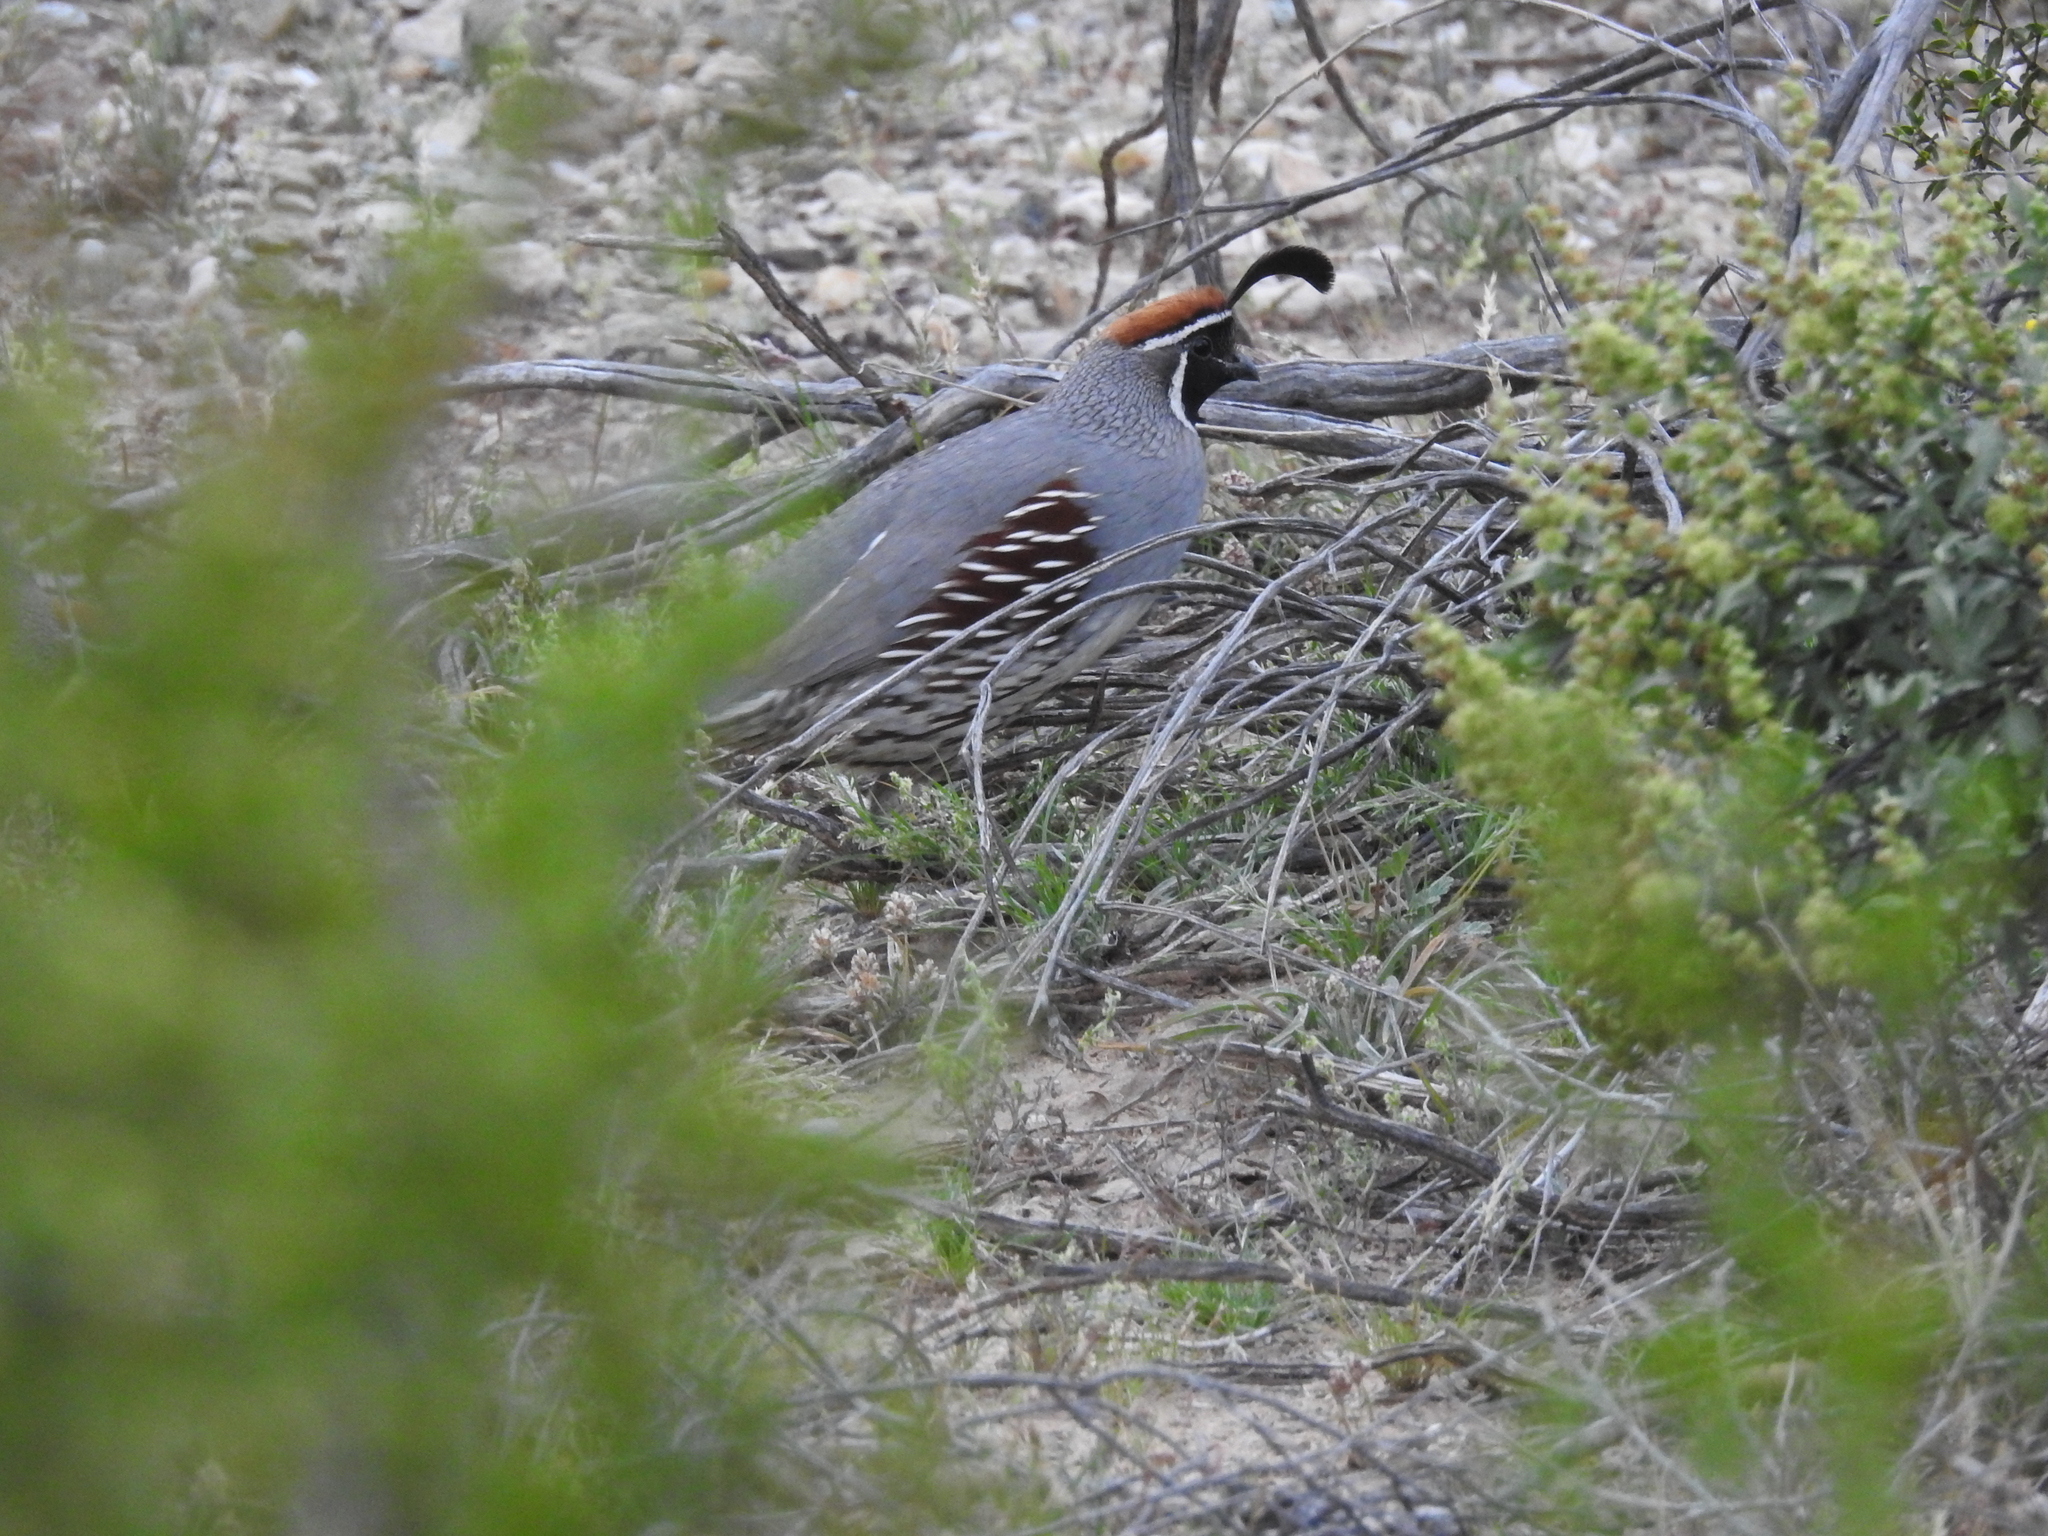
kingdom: Animalia
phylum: Chordata
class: Aves
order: Galliformes
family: Odontophoridae
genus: Callipepla
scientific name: Callipepla gambelii
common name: Gambel's quail
